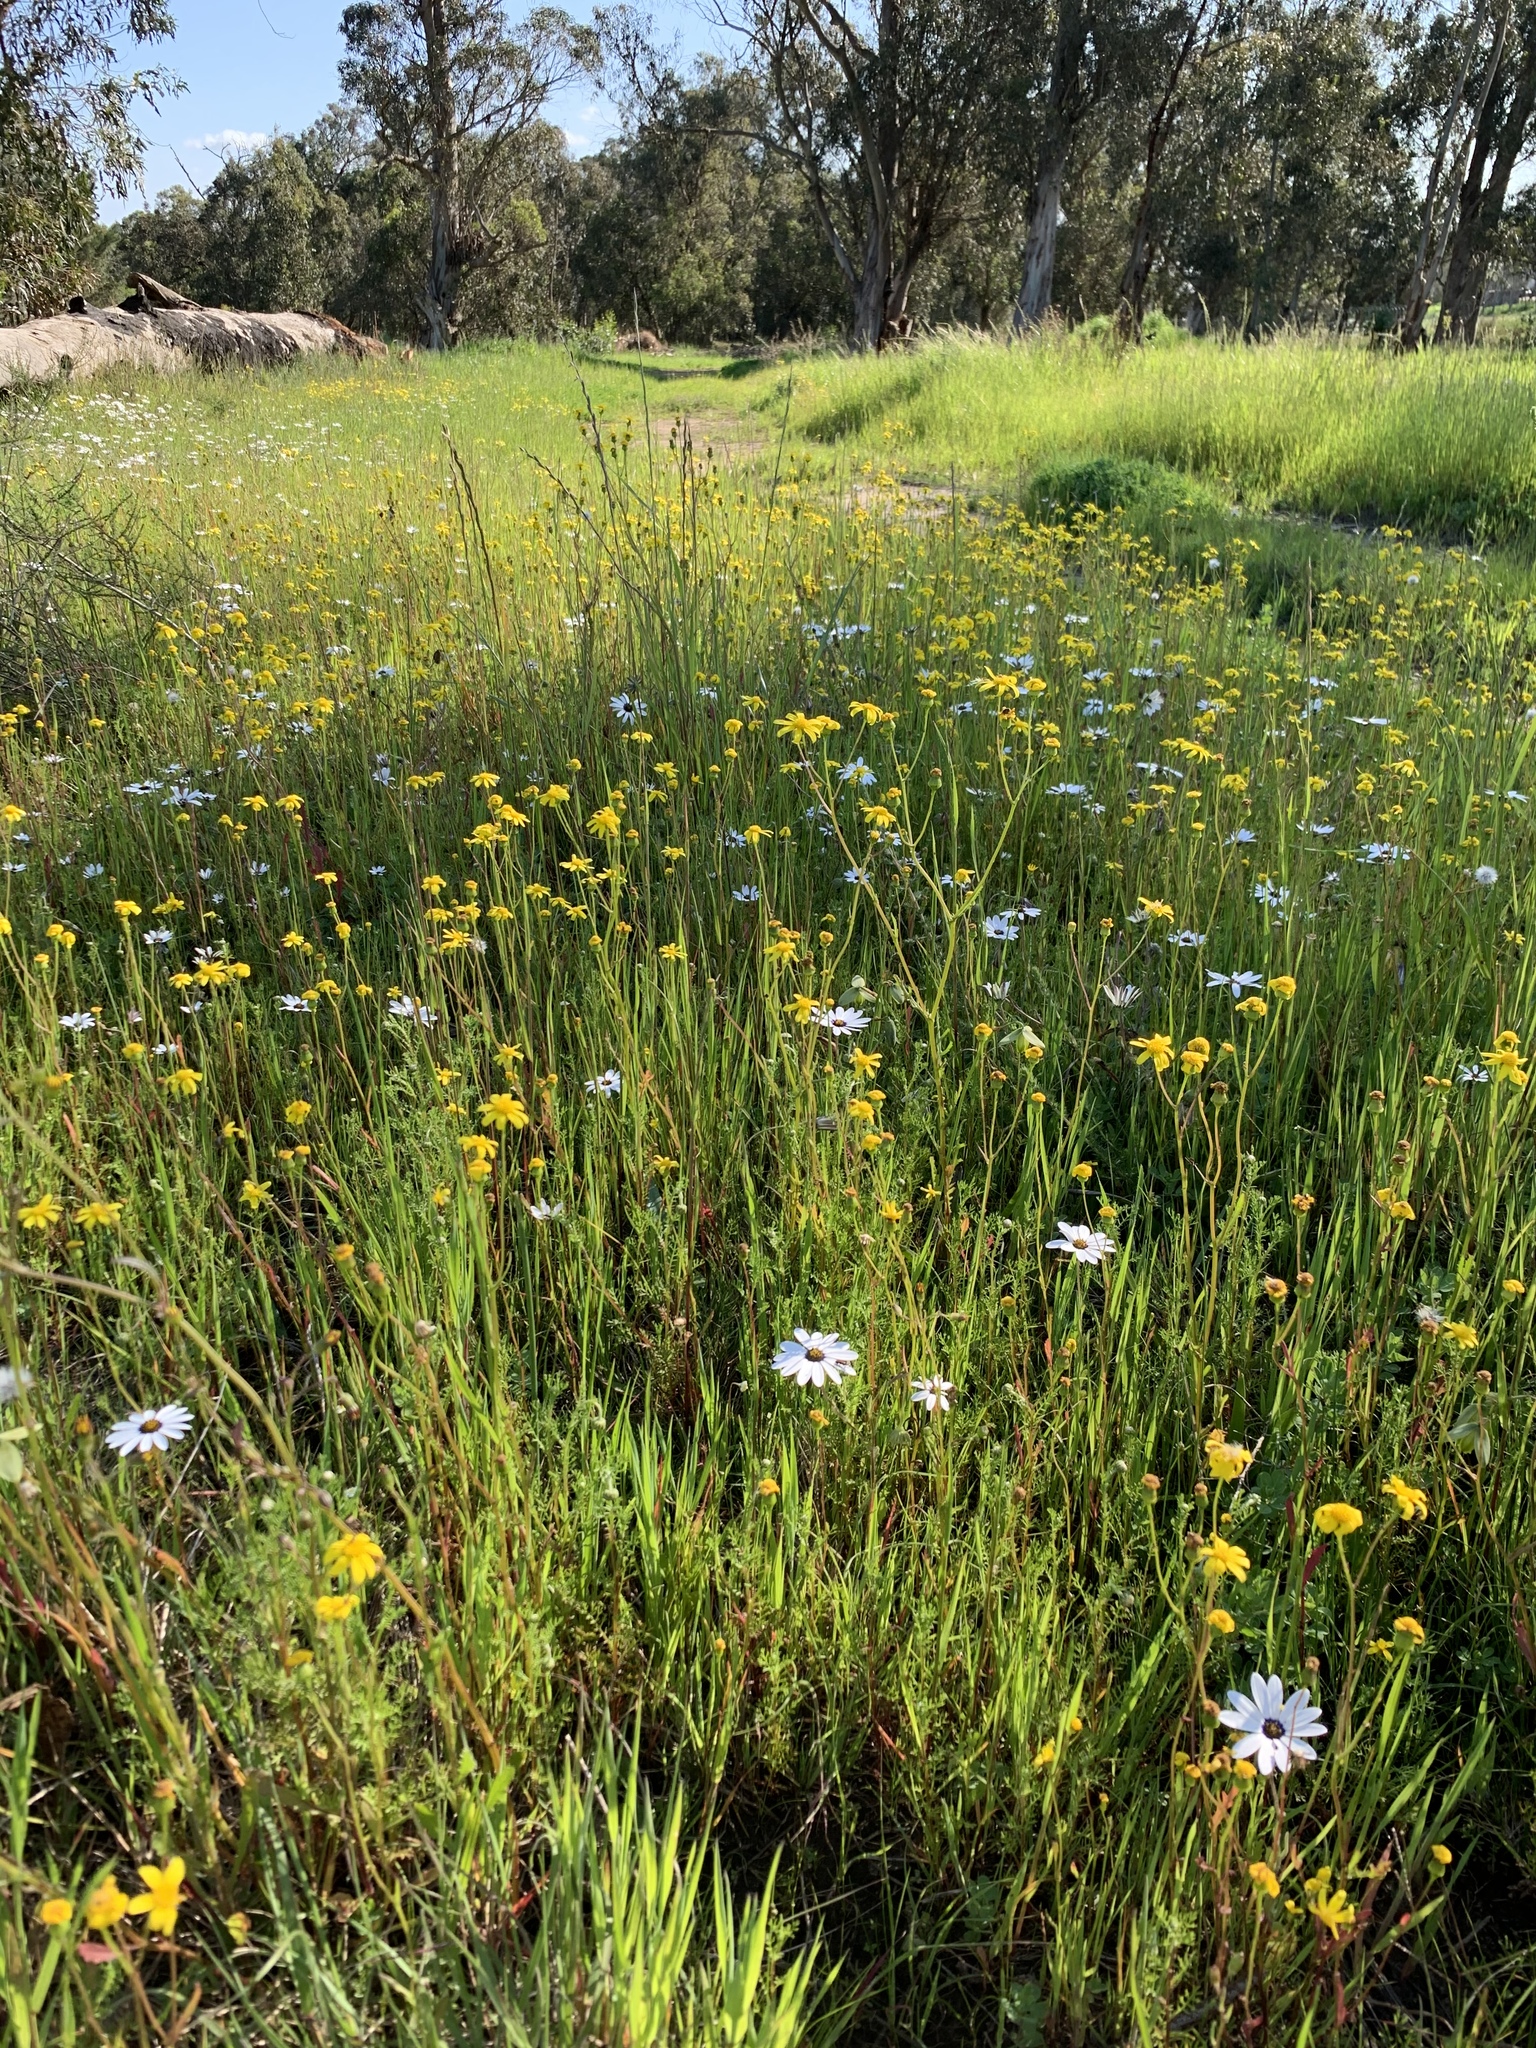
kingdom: Plantae
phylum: Tracheophyta
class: Magnoliopsida
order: Asterales
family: Asteraceae
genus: Senecio
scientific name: Senecio abruptus
